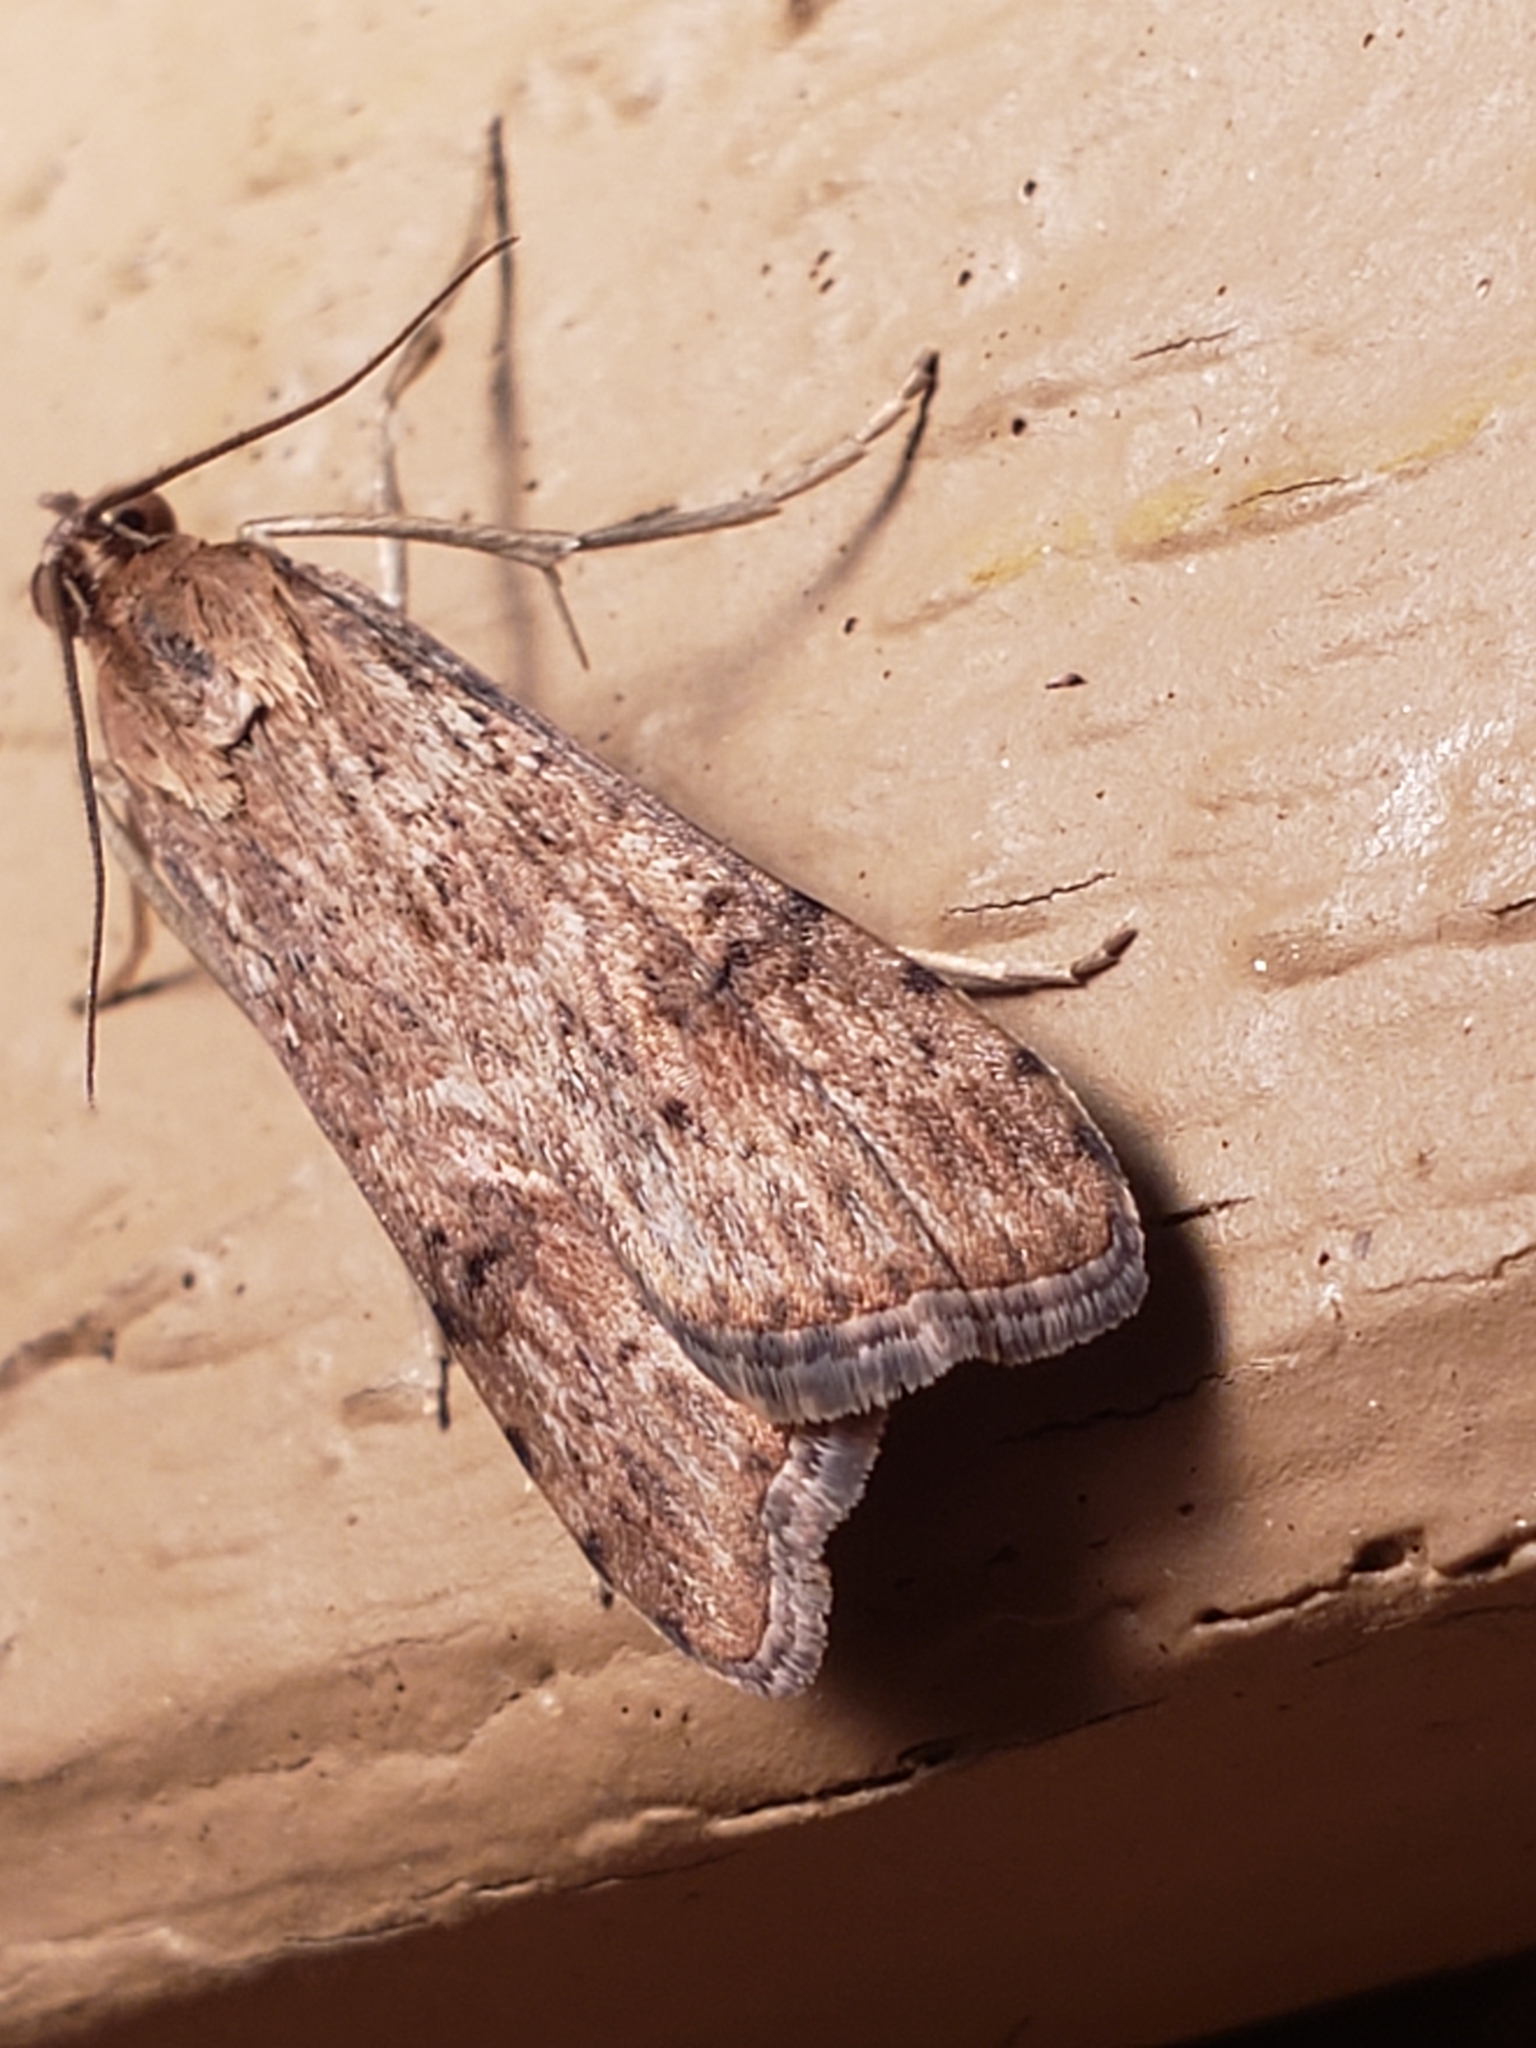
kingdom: Animalia
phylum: Arthropoda
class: Insecta
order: Lepidoptera
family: Crambidae
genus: Nomophila
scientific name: Nomophila nearctica
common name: American rush veneer
